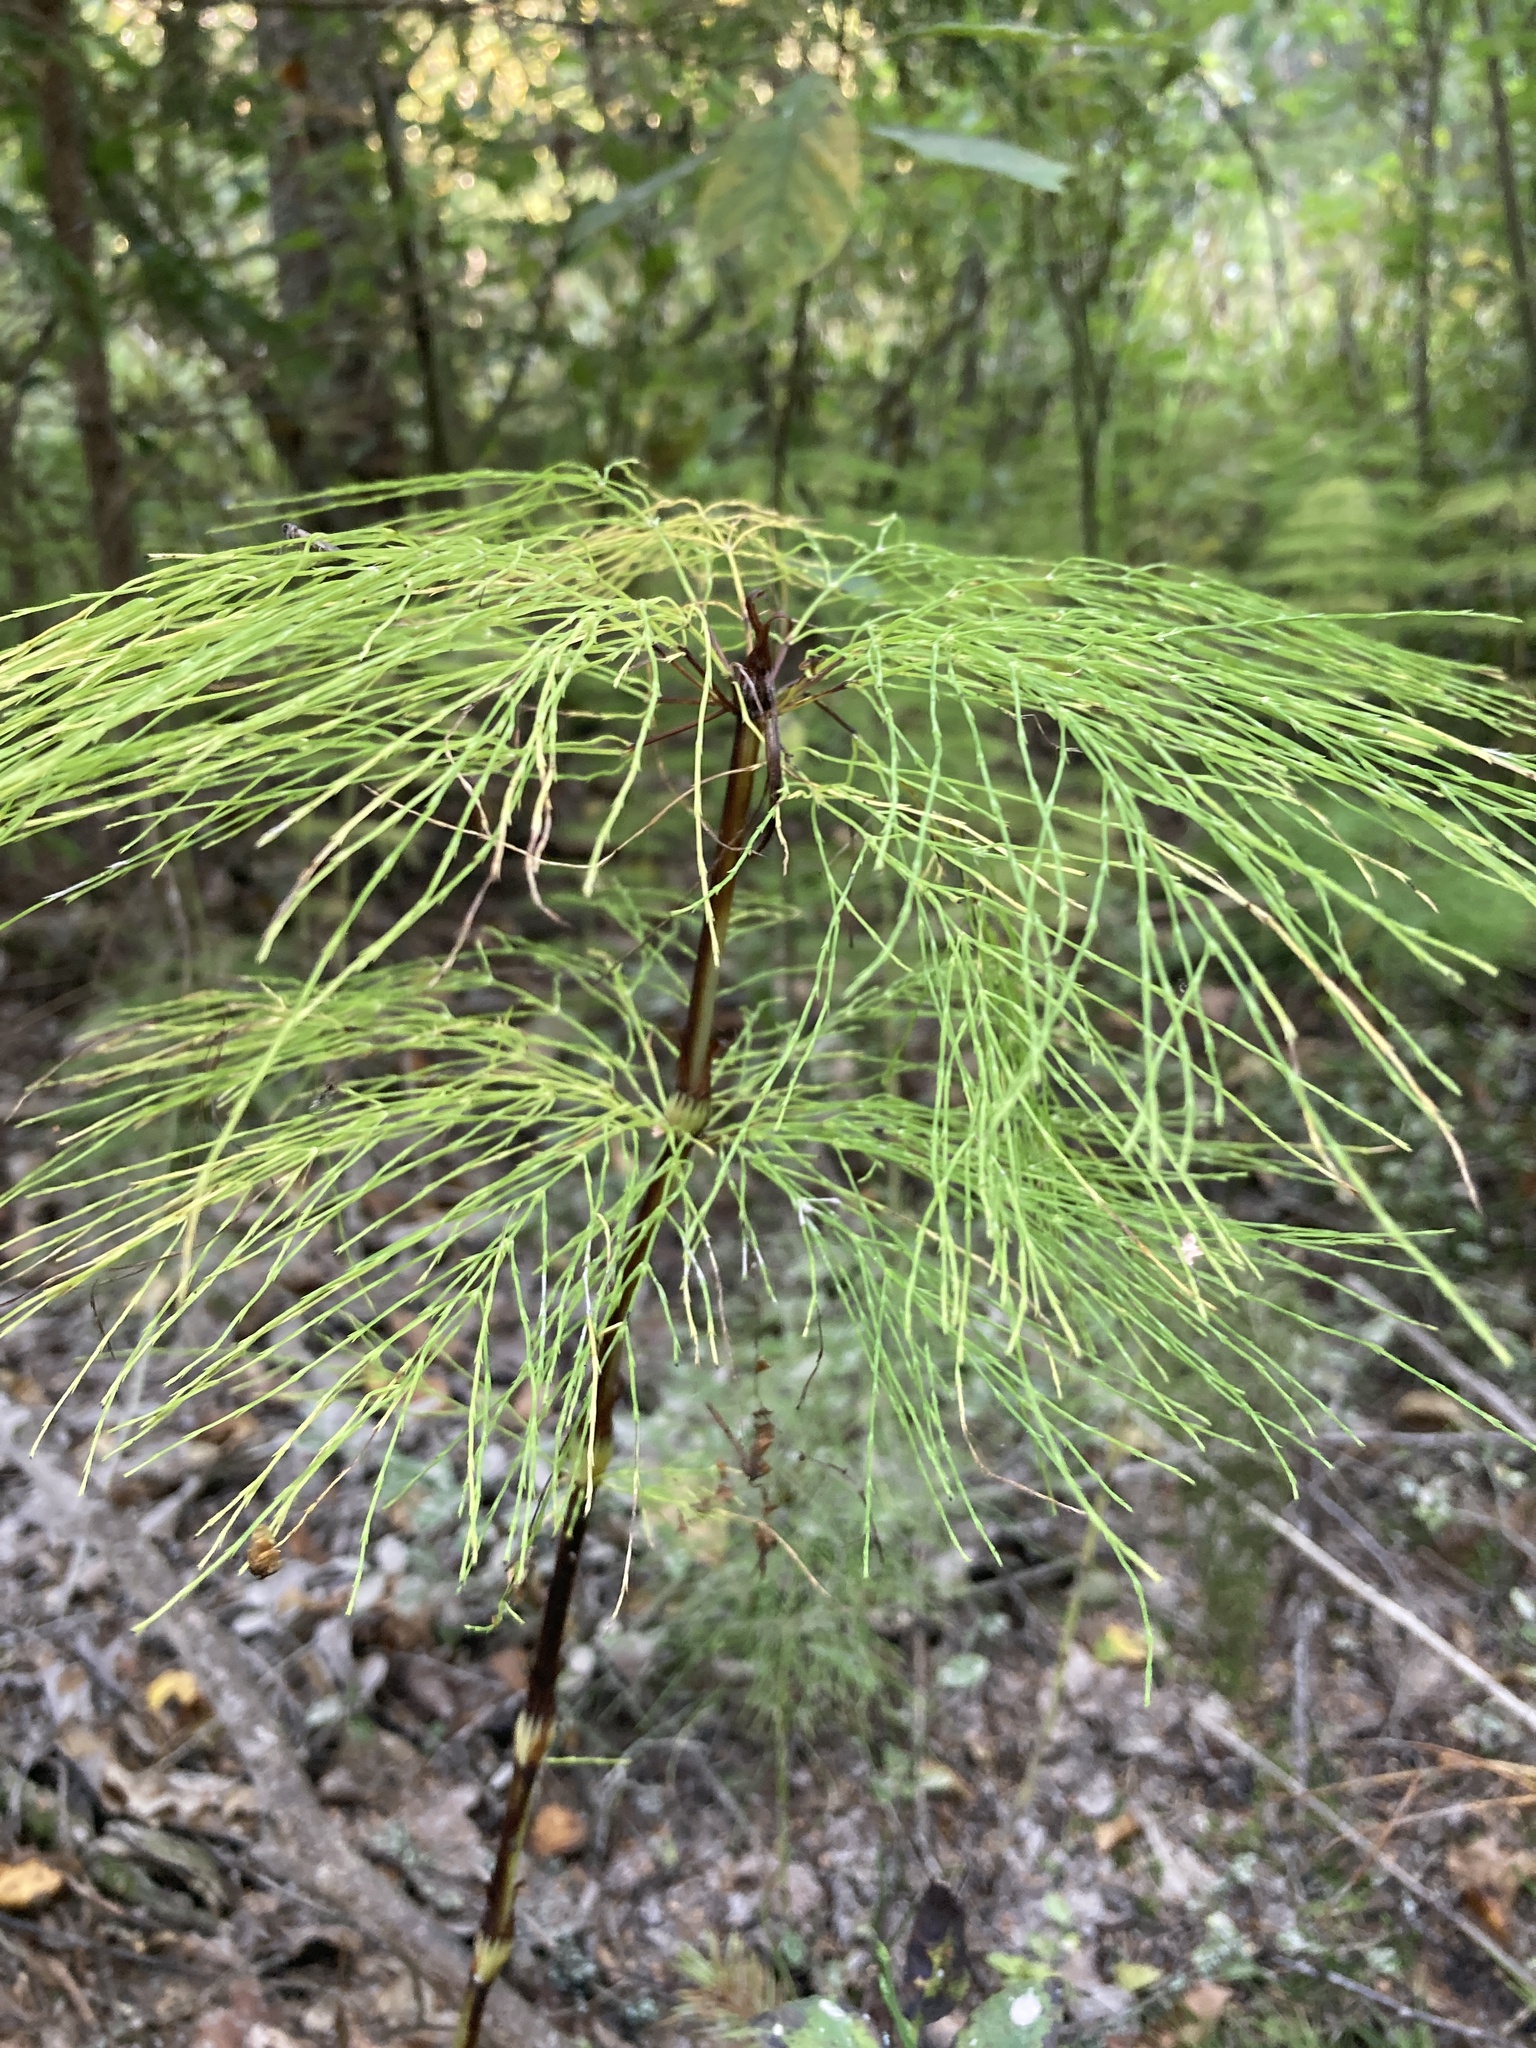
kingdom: Plantae
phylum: Tracheophyta
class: Polypodiopsida
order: Equisetales
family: Equisetaceae
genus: Equisetum
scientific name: Equisetum sylvaticum
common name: Wood horsetail
